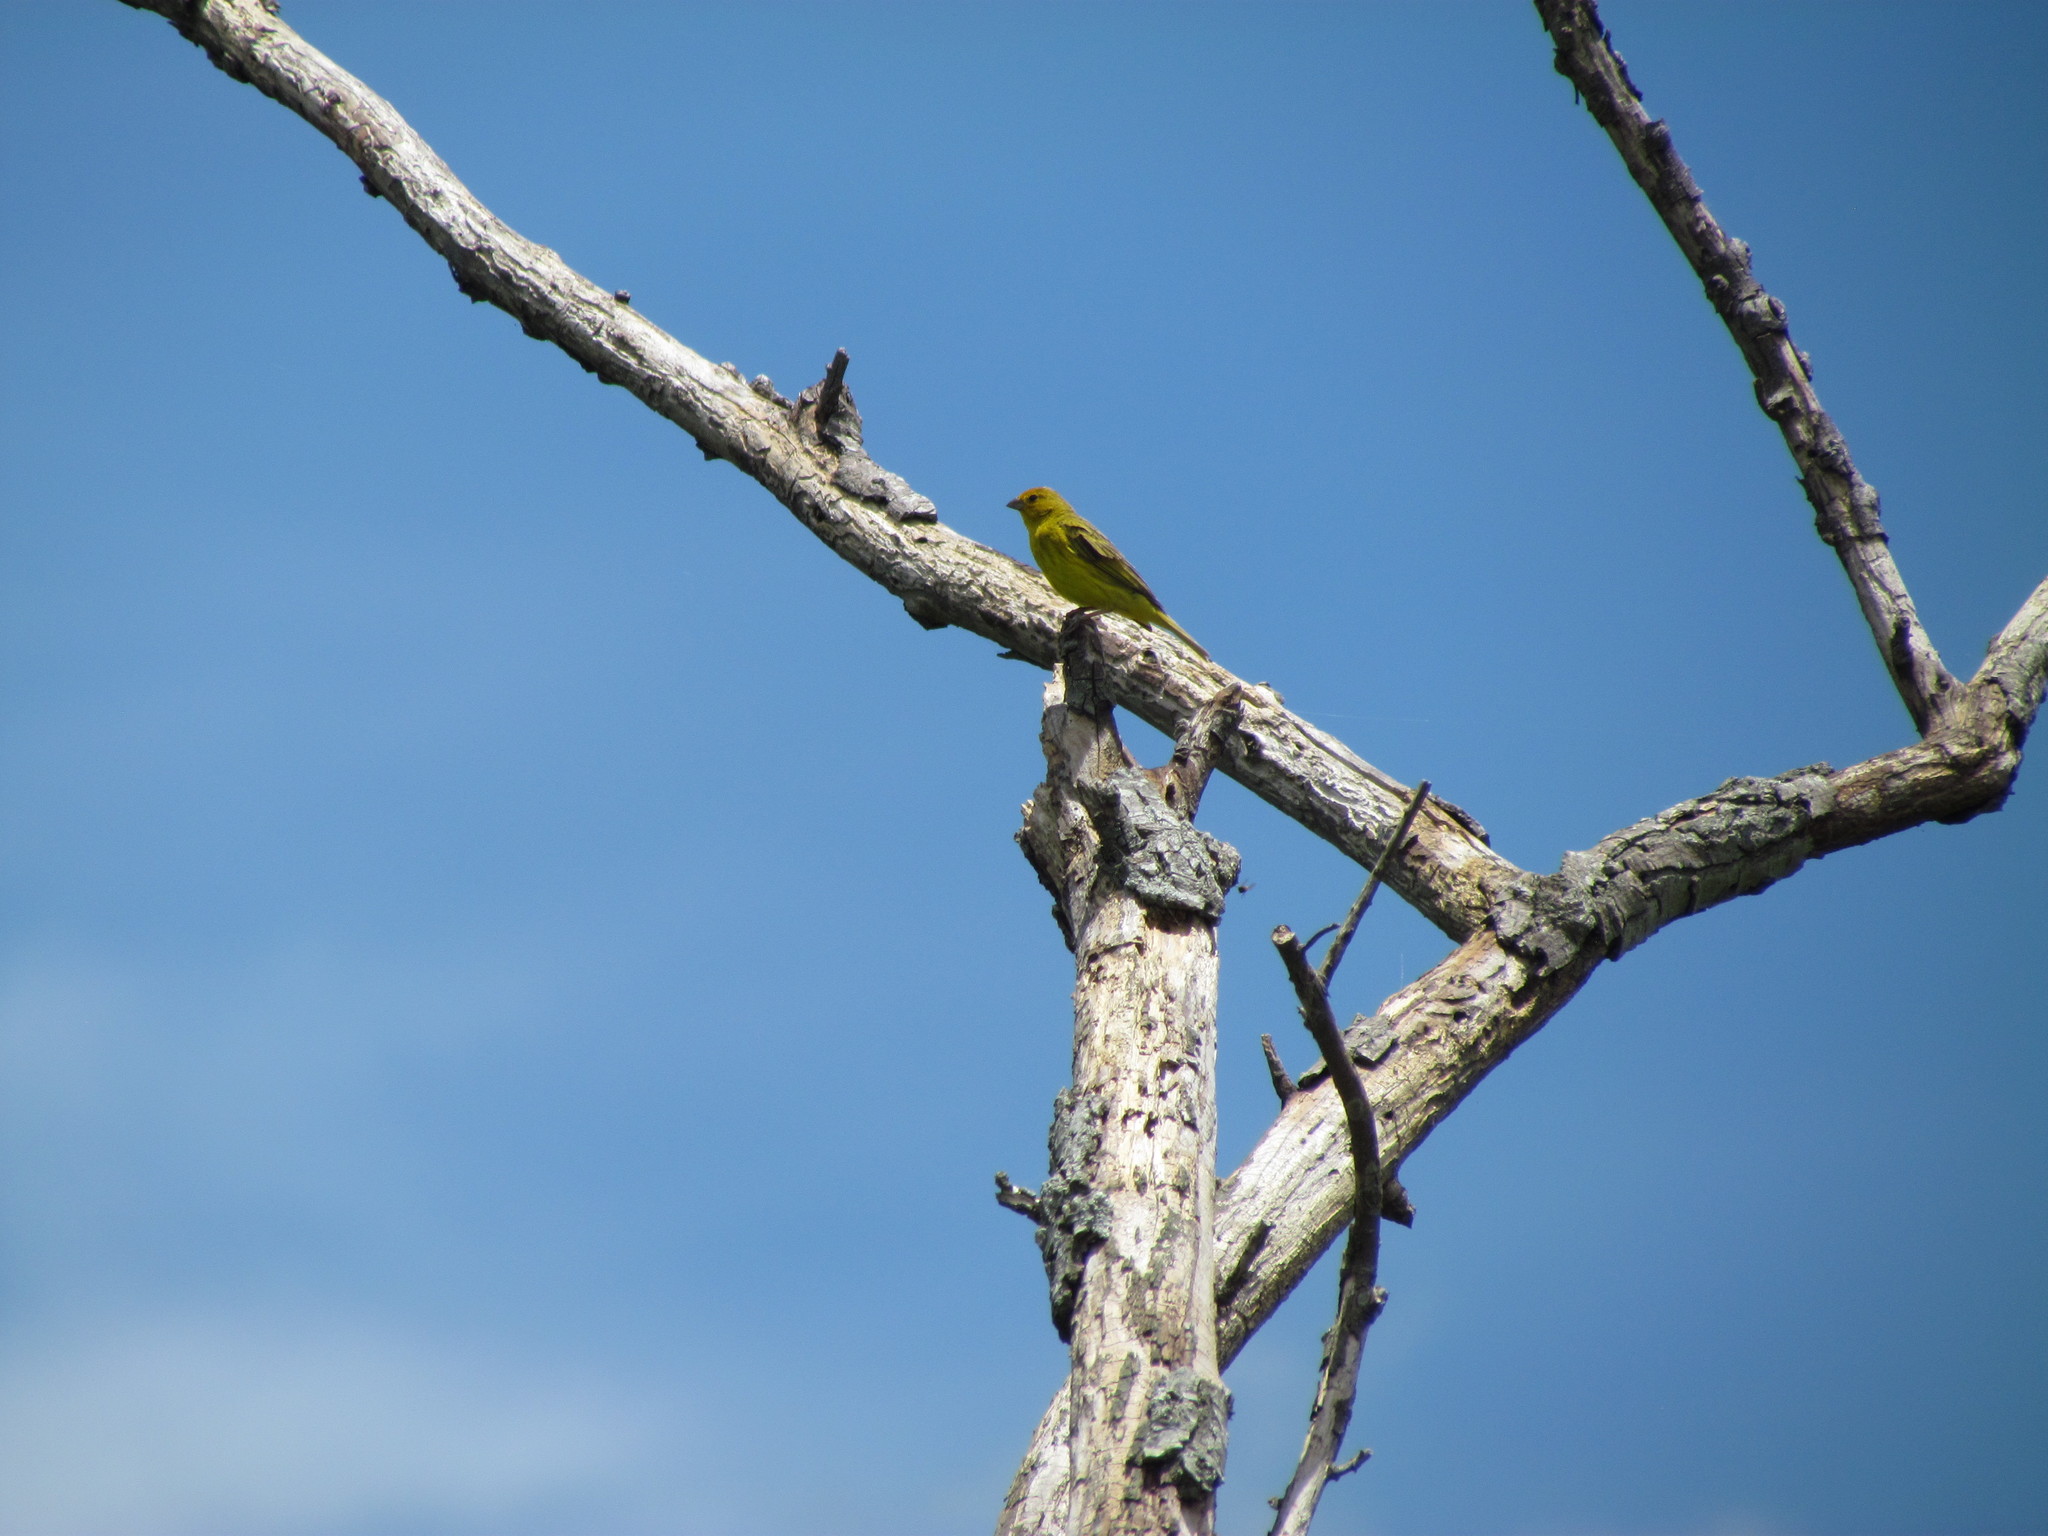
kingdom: Animalia
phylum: Chordata
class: Aves
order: Passeriformes
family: Thraupidae
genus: Sicalis
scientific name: Sicalis flaveola
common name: Saffron finch
